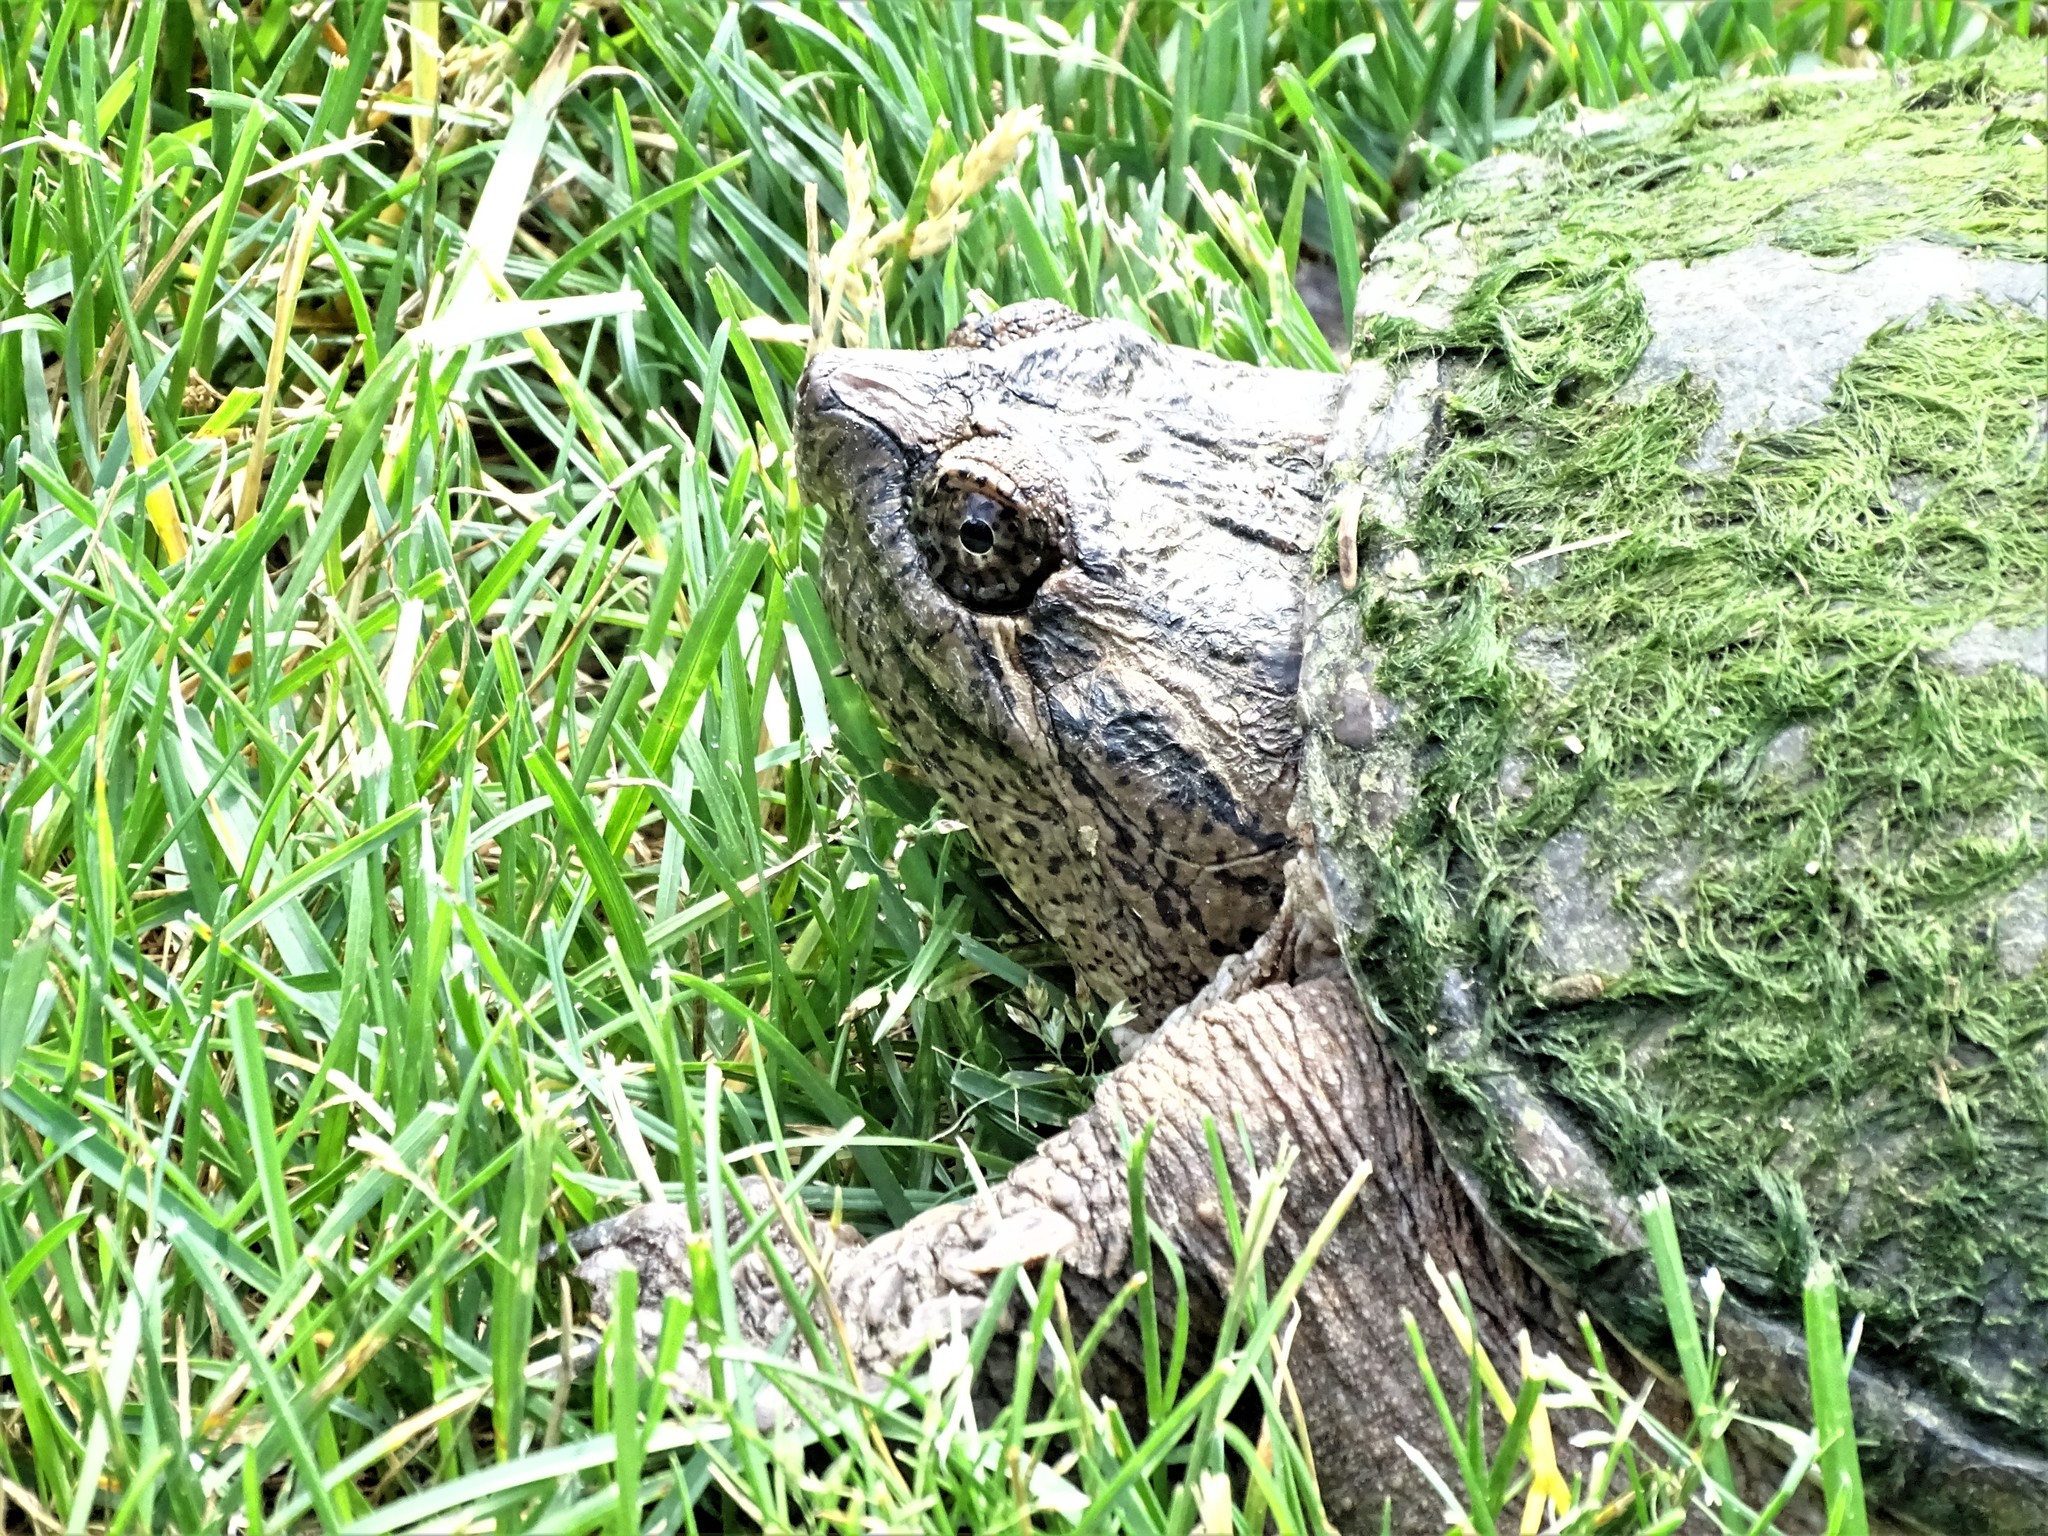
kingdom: Animalia
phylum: Chordata
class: Testudines
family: Chelydridae
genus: Chelydra
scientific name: Chelydra serpentina
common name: Common snapping turtle
